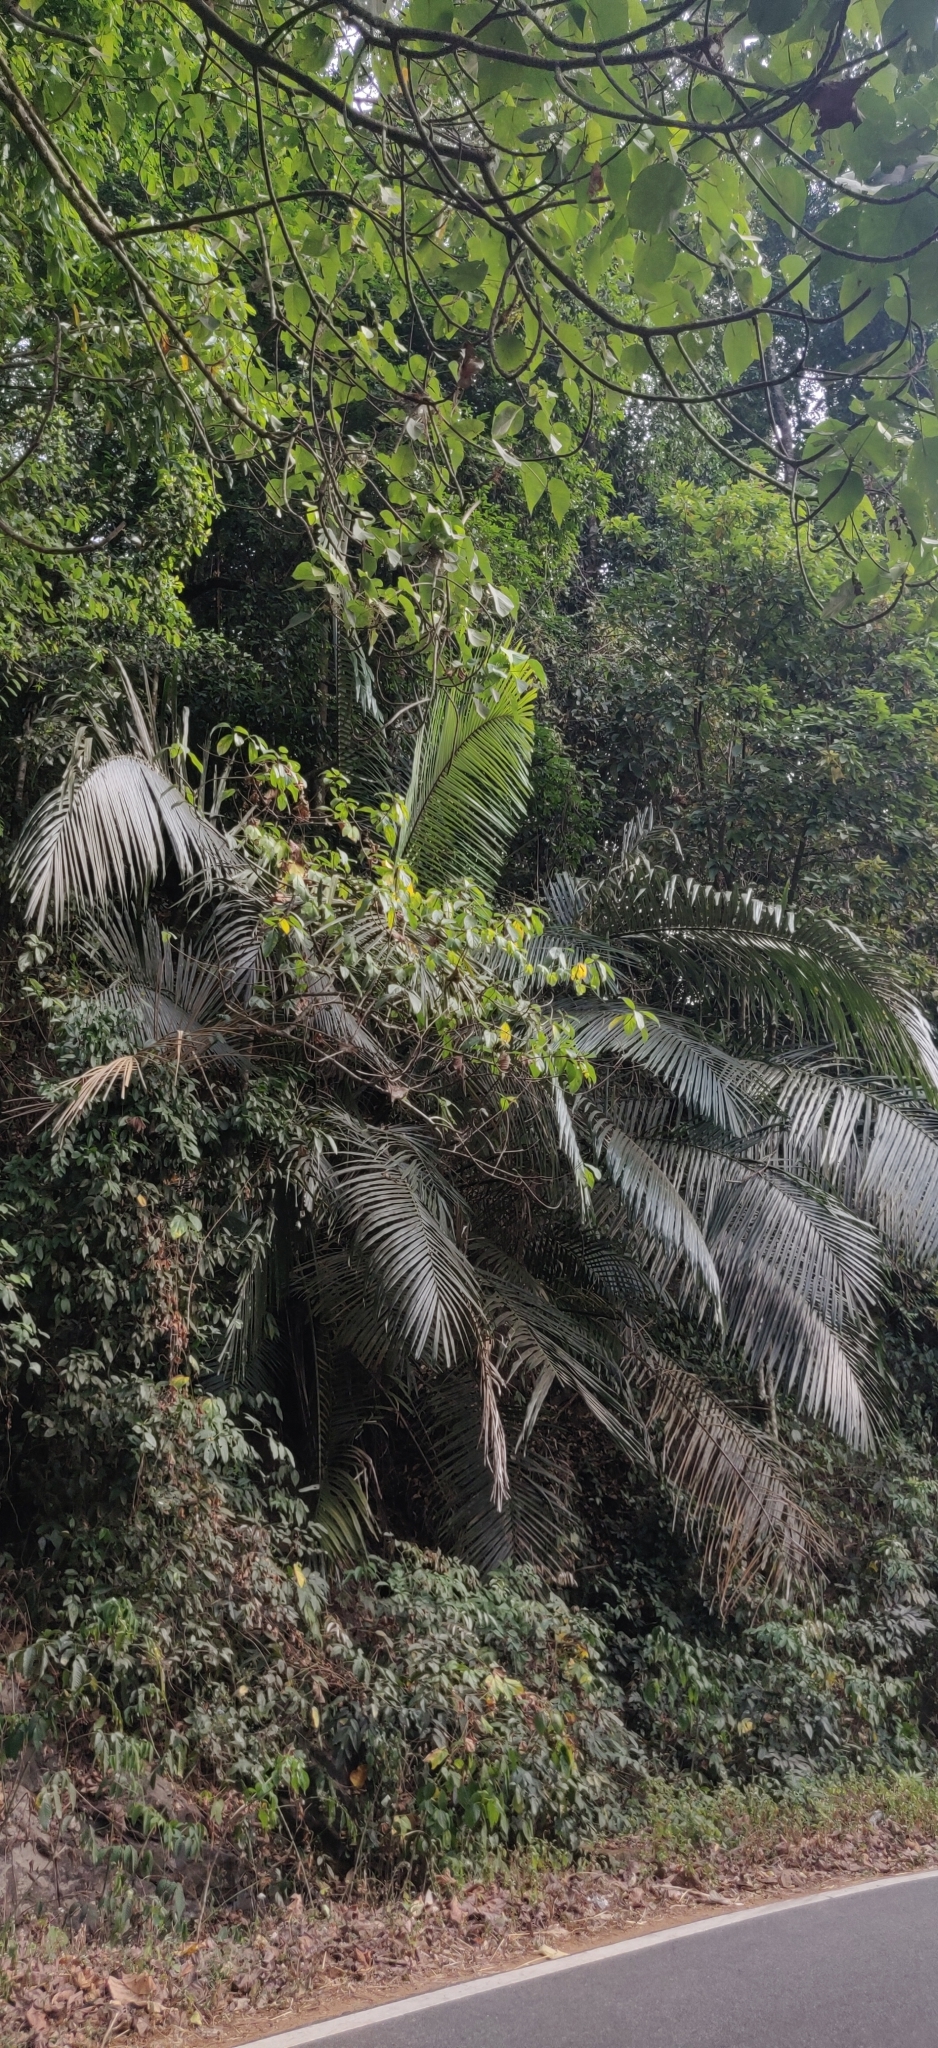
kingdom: Plantae
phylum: Tracheophyta
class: Liliopsida
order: Arecales
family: Arecaceae
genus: Arenga
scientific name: Arenga wightii
